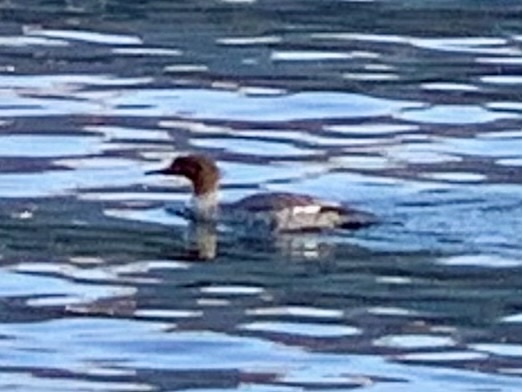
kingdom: Animalia
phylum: Chordata
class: Aves
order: Anseriformes
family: Anatidae
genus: Mergus
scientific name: Mergus merganser
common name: Common merganser
